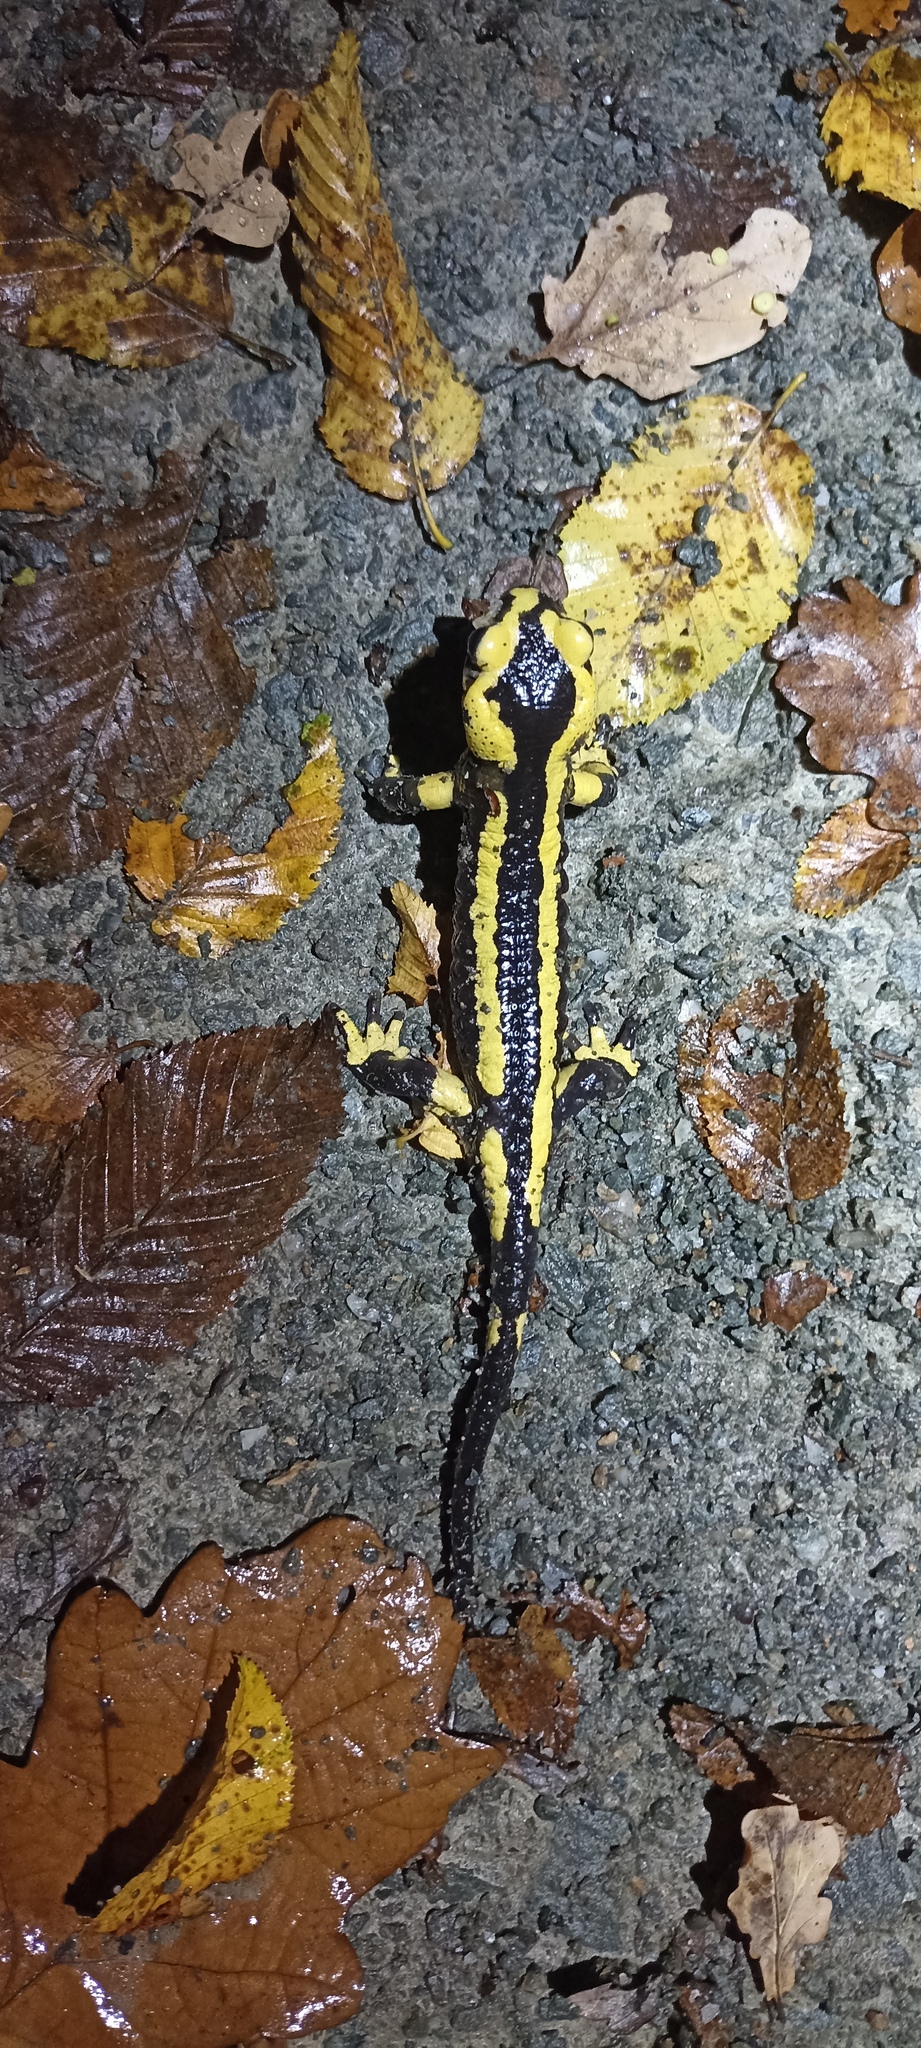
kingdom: Animalia
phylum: Chordata
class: Amphibia
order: Caudata
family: Salamandridae
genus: Salamandra
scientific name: Salamandra salamandra
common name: Fire salamander
